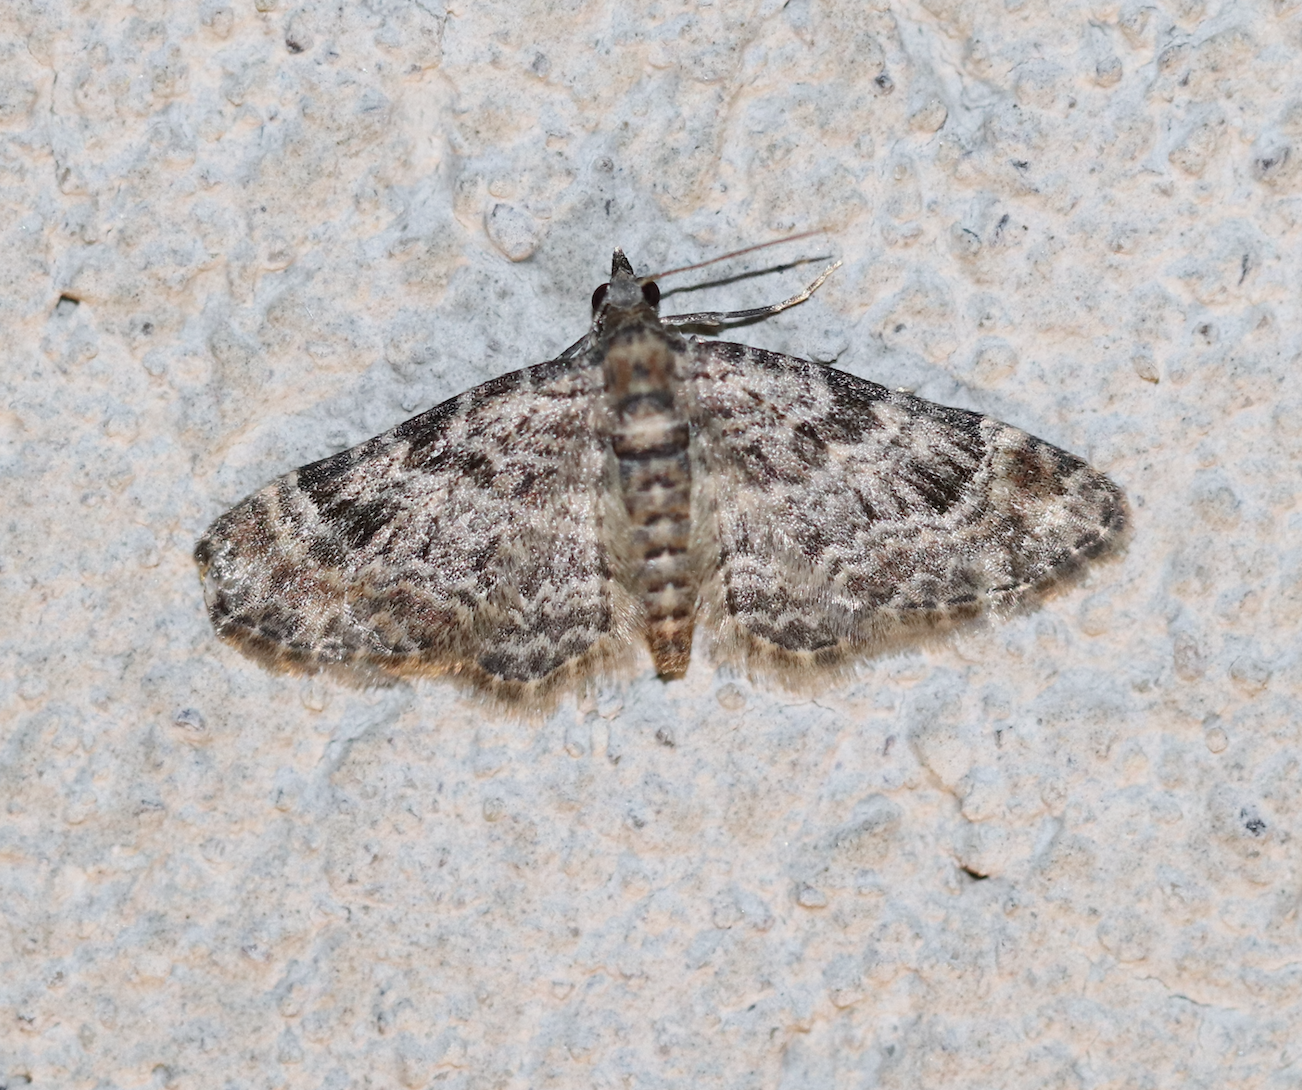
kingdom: Animalia
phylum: Arthropoda
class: Insecta
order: Lepidoptera
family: Geometridae
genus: Gymnoscelis
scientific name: Gymnoscelis rufifasciata
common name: Double-striped pug
